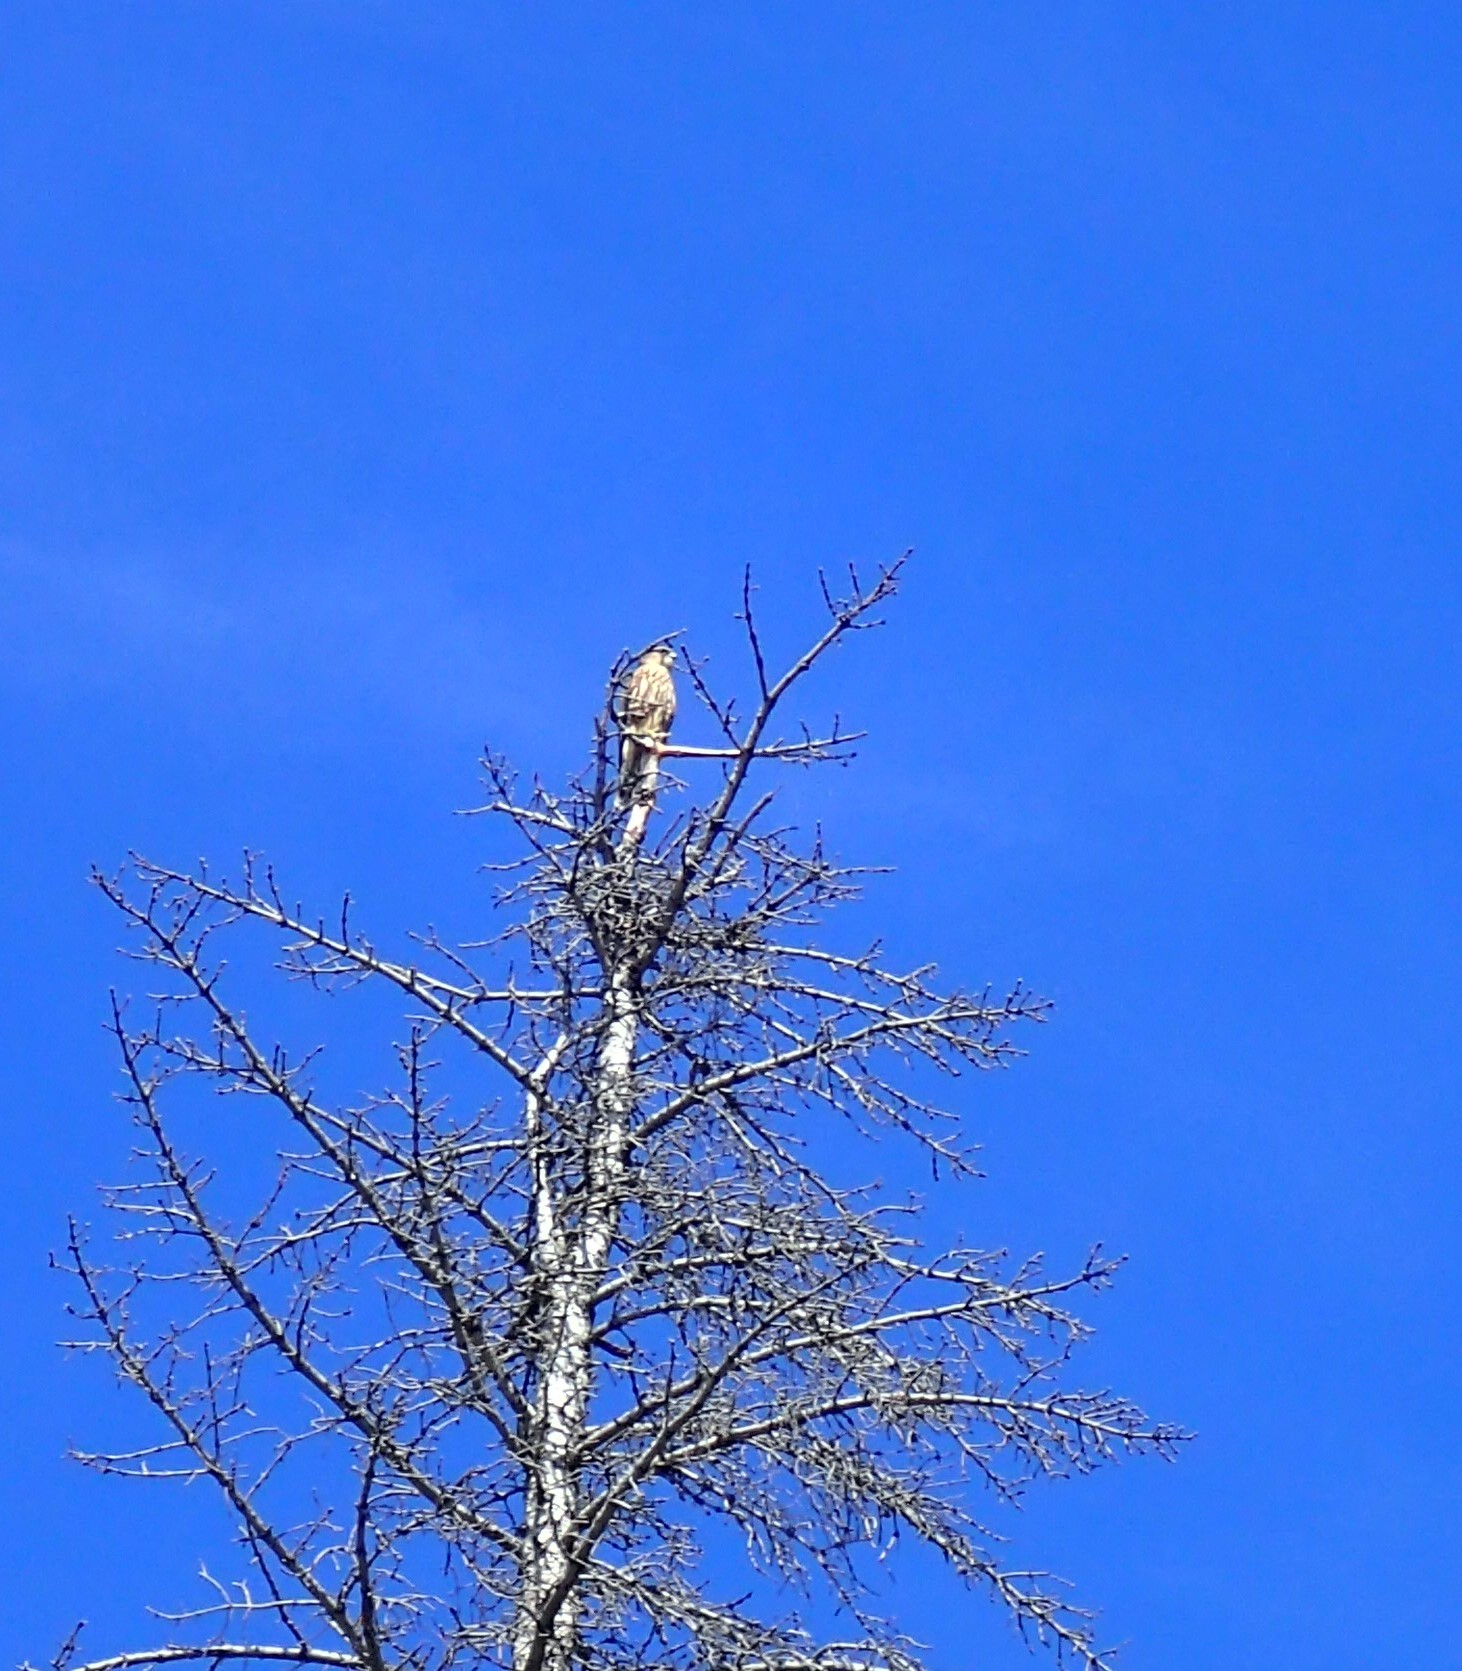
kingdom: Animalia
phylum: Chordata
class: Aves
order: Falconiformes
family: Falconidae
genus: Falco
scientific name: Falco columbarius
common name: Merlin
